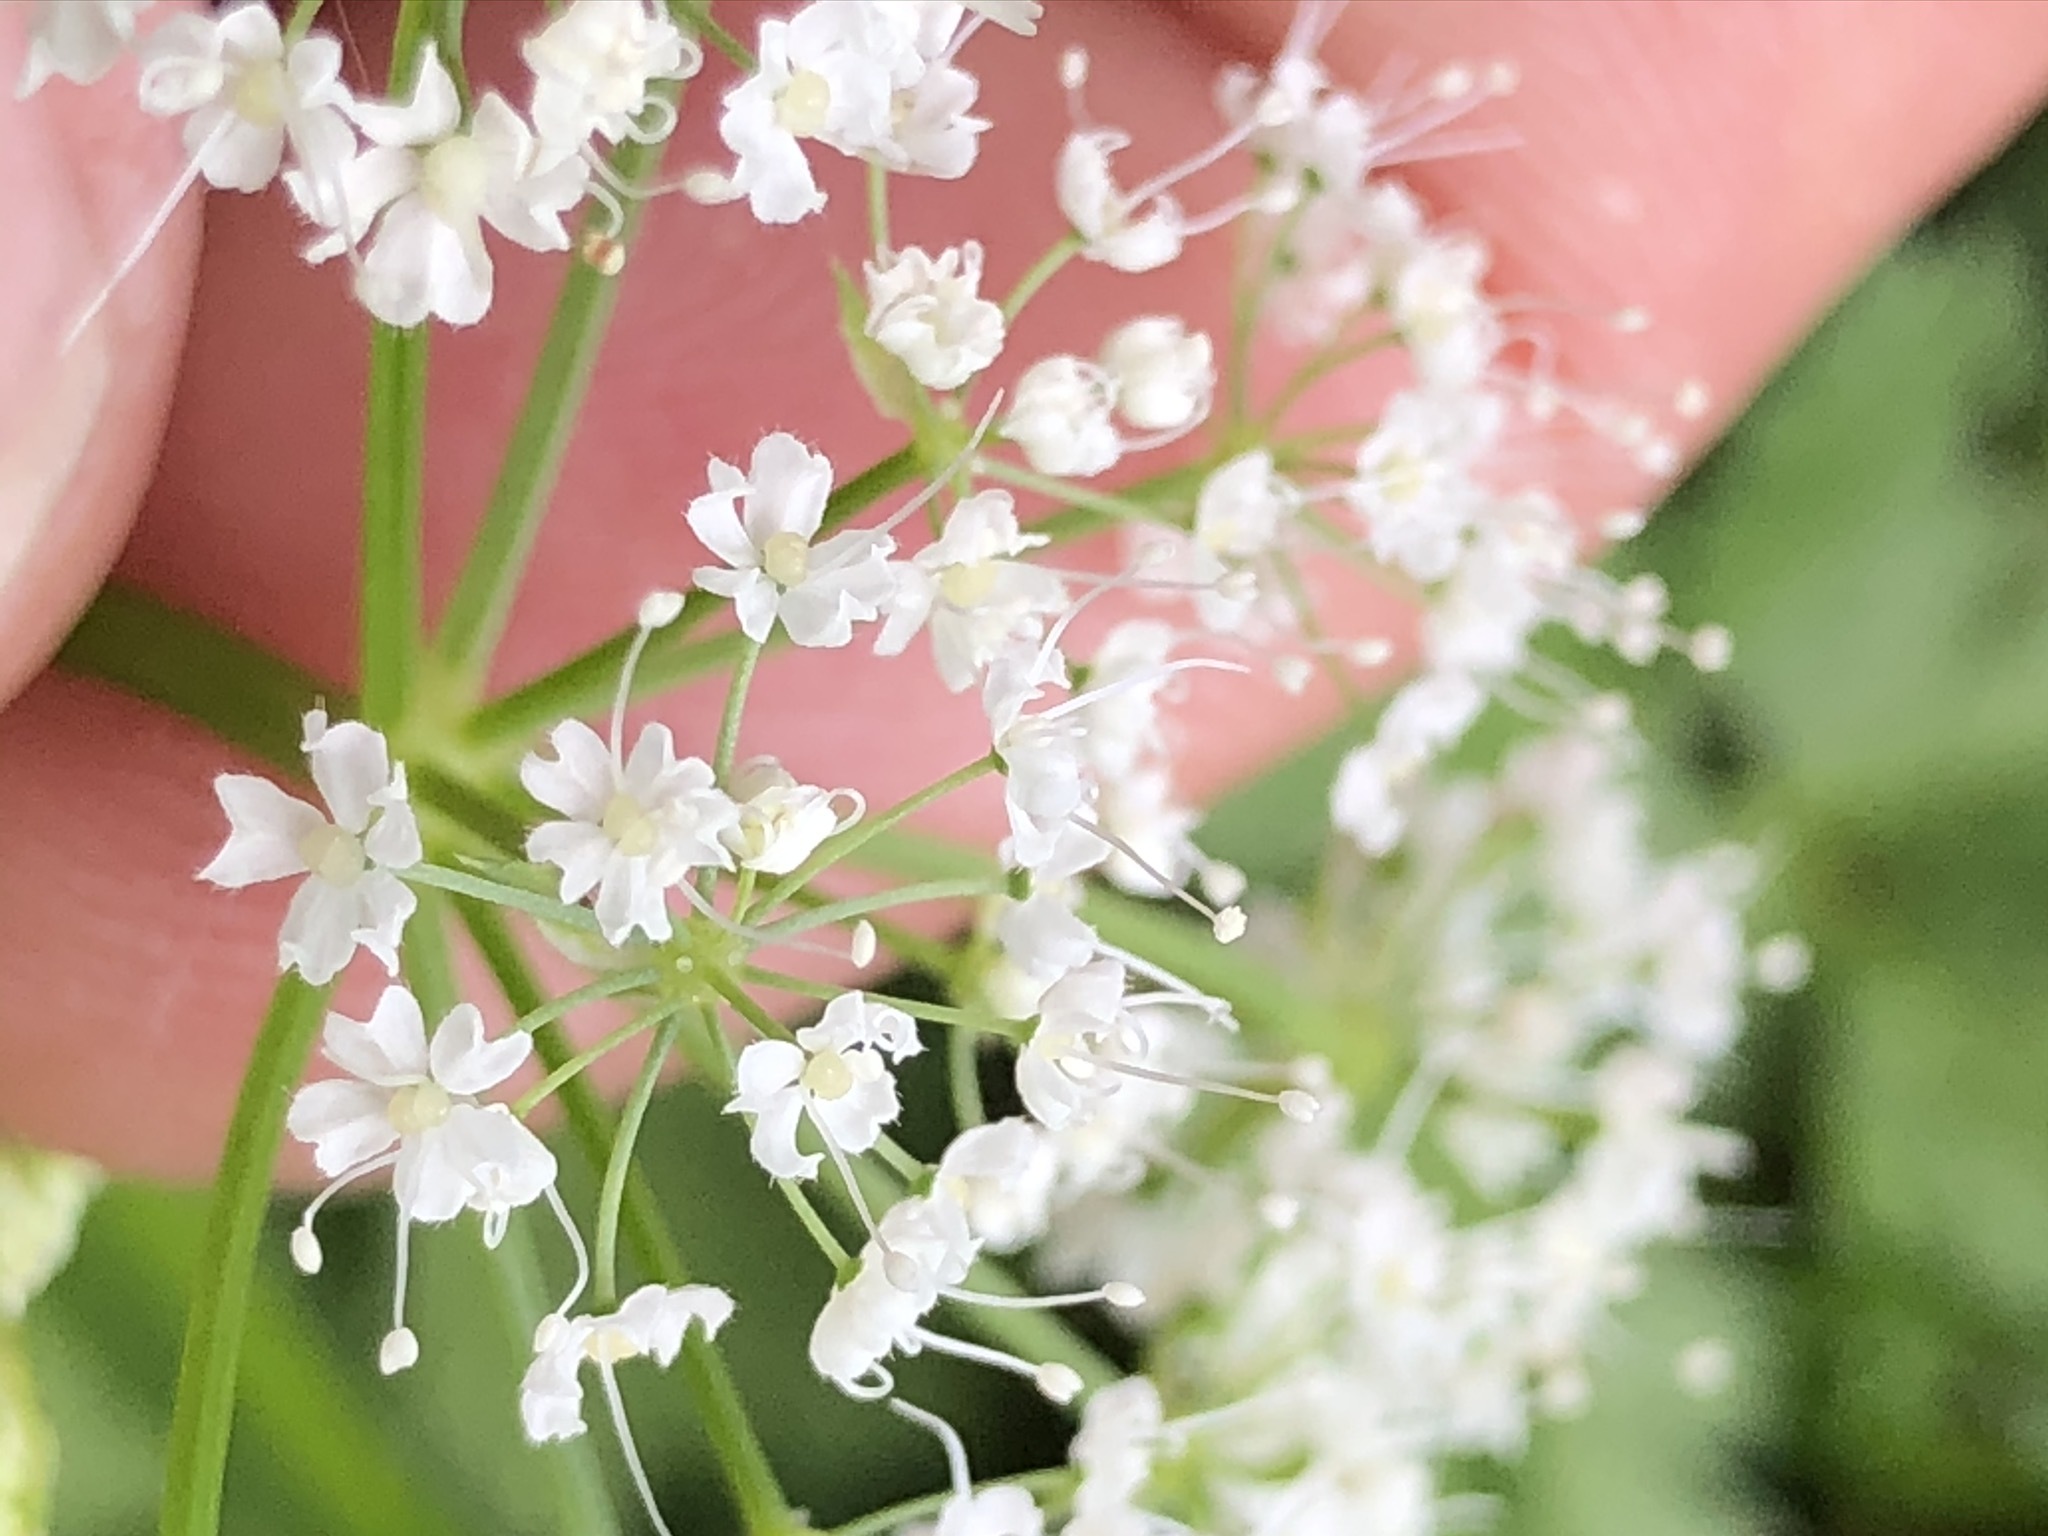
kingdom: Plantae
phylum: Tracheophyta
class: Magnoliopsida
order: Apiales
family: Apiaceae
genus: Anthriscus
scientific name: Anthriscus sylvestris
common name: Cow parsley
